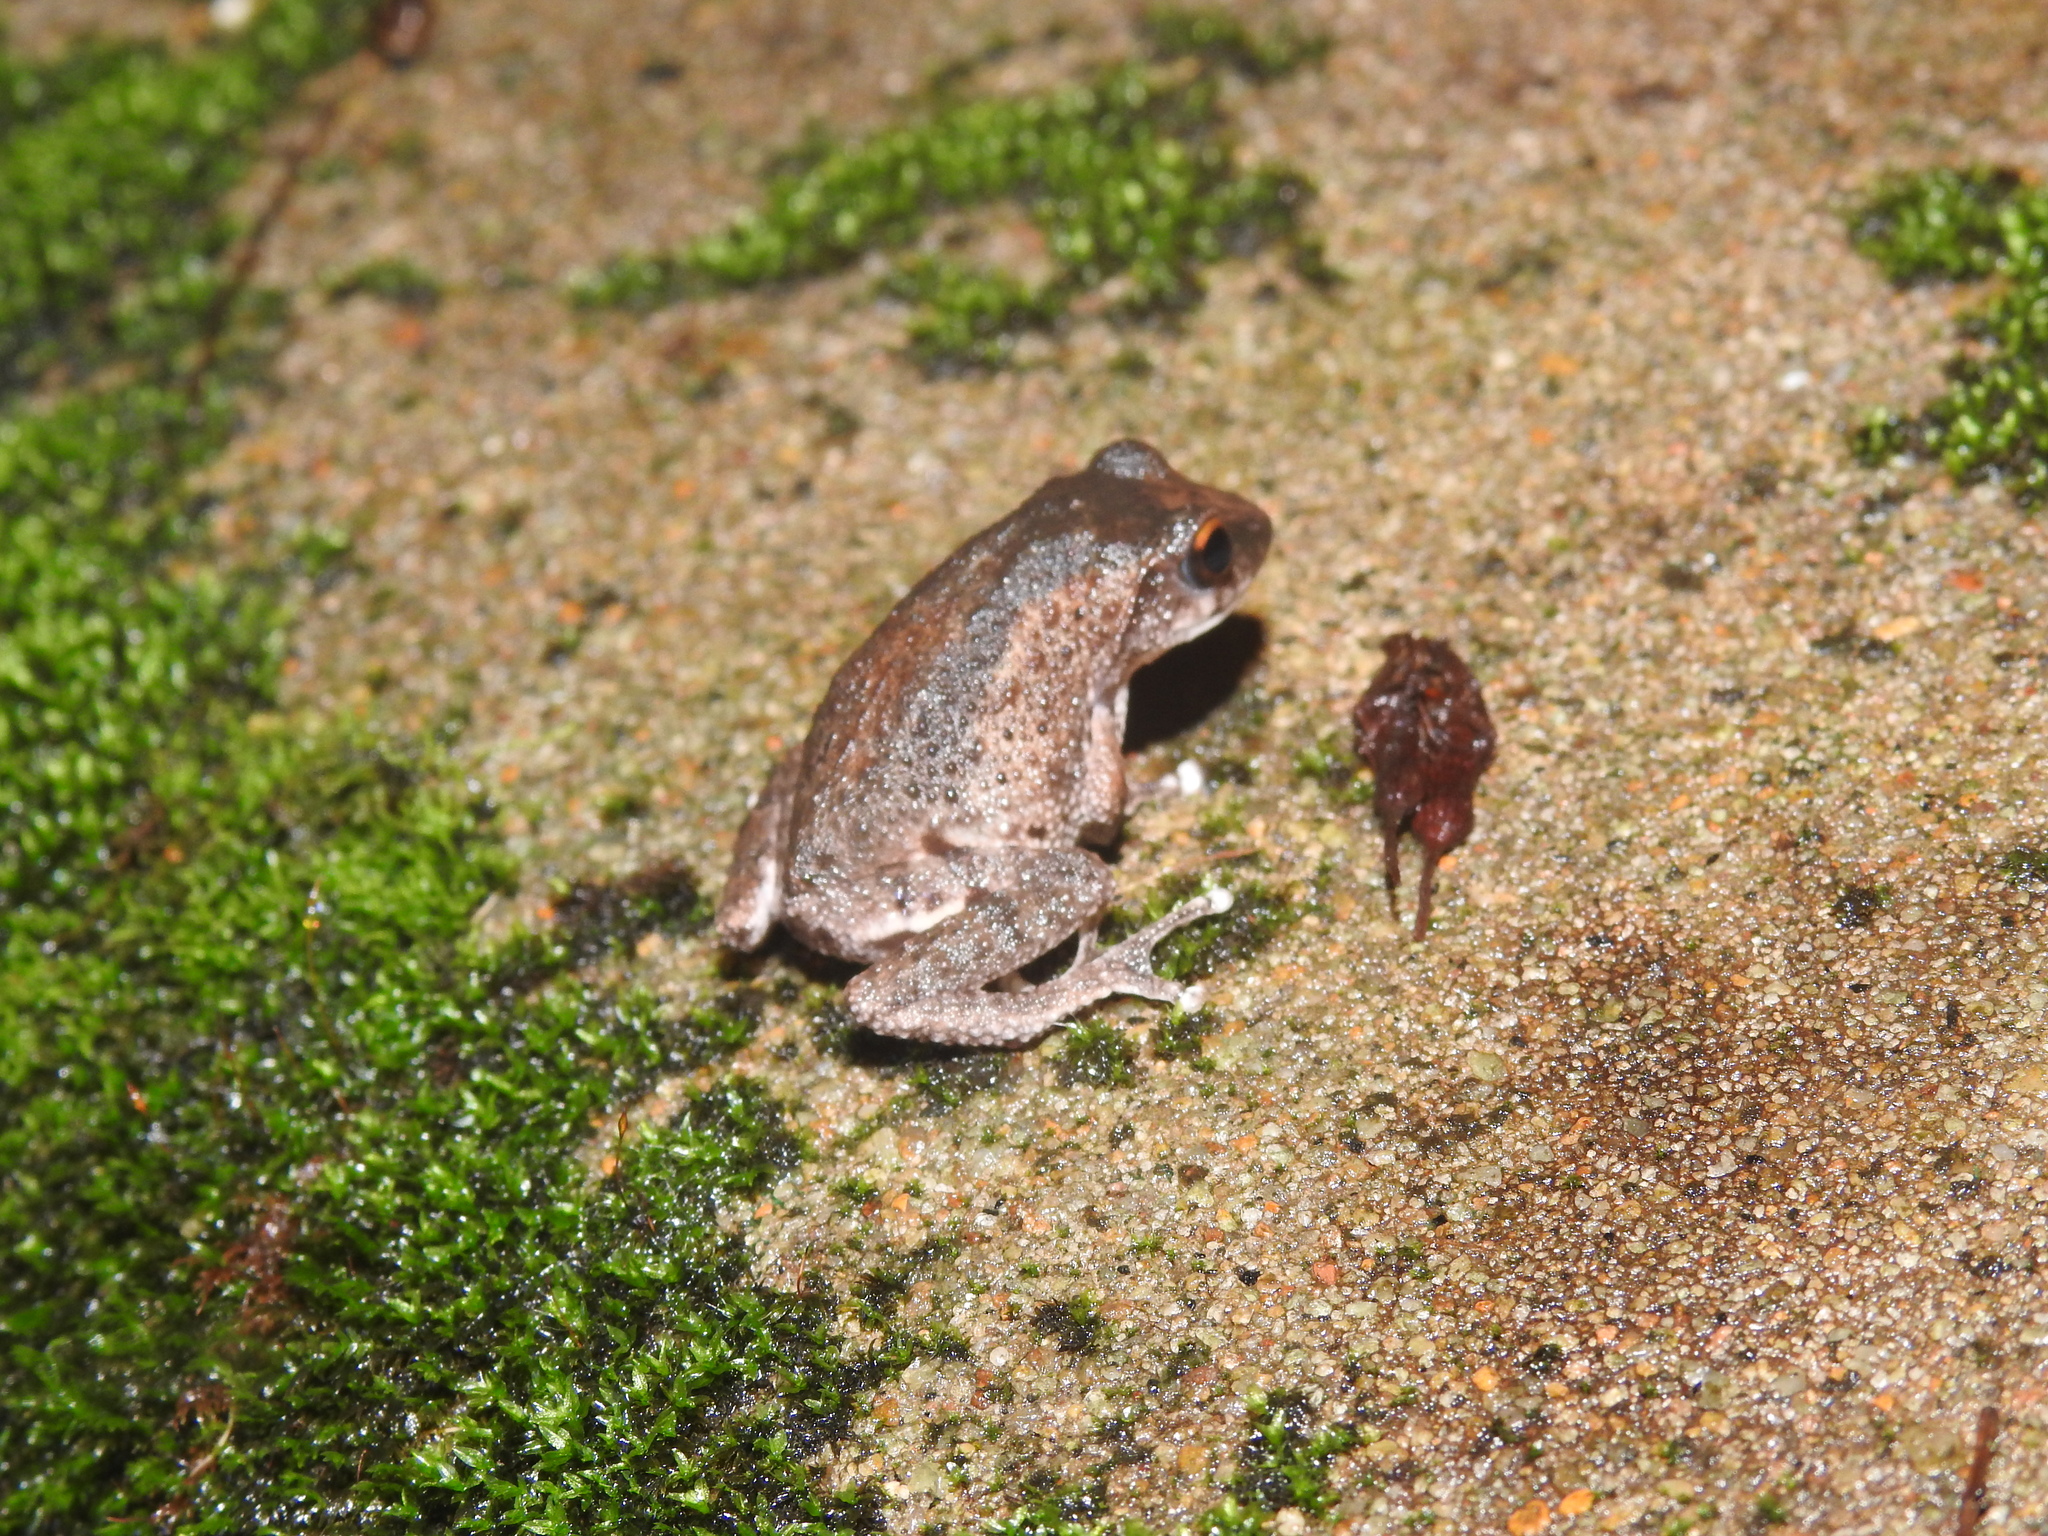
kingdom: Animalia
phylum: Chordata
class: Amphibia
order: Anura
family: Rhacophoridae
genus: Raorchestes
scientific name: Raorchestes dubois
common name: Koadaikanal bush frog
